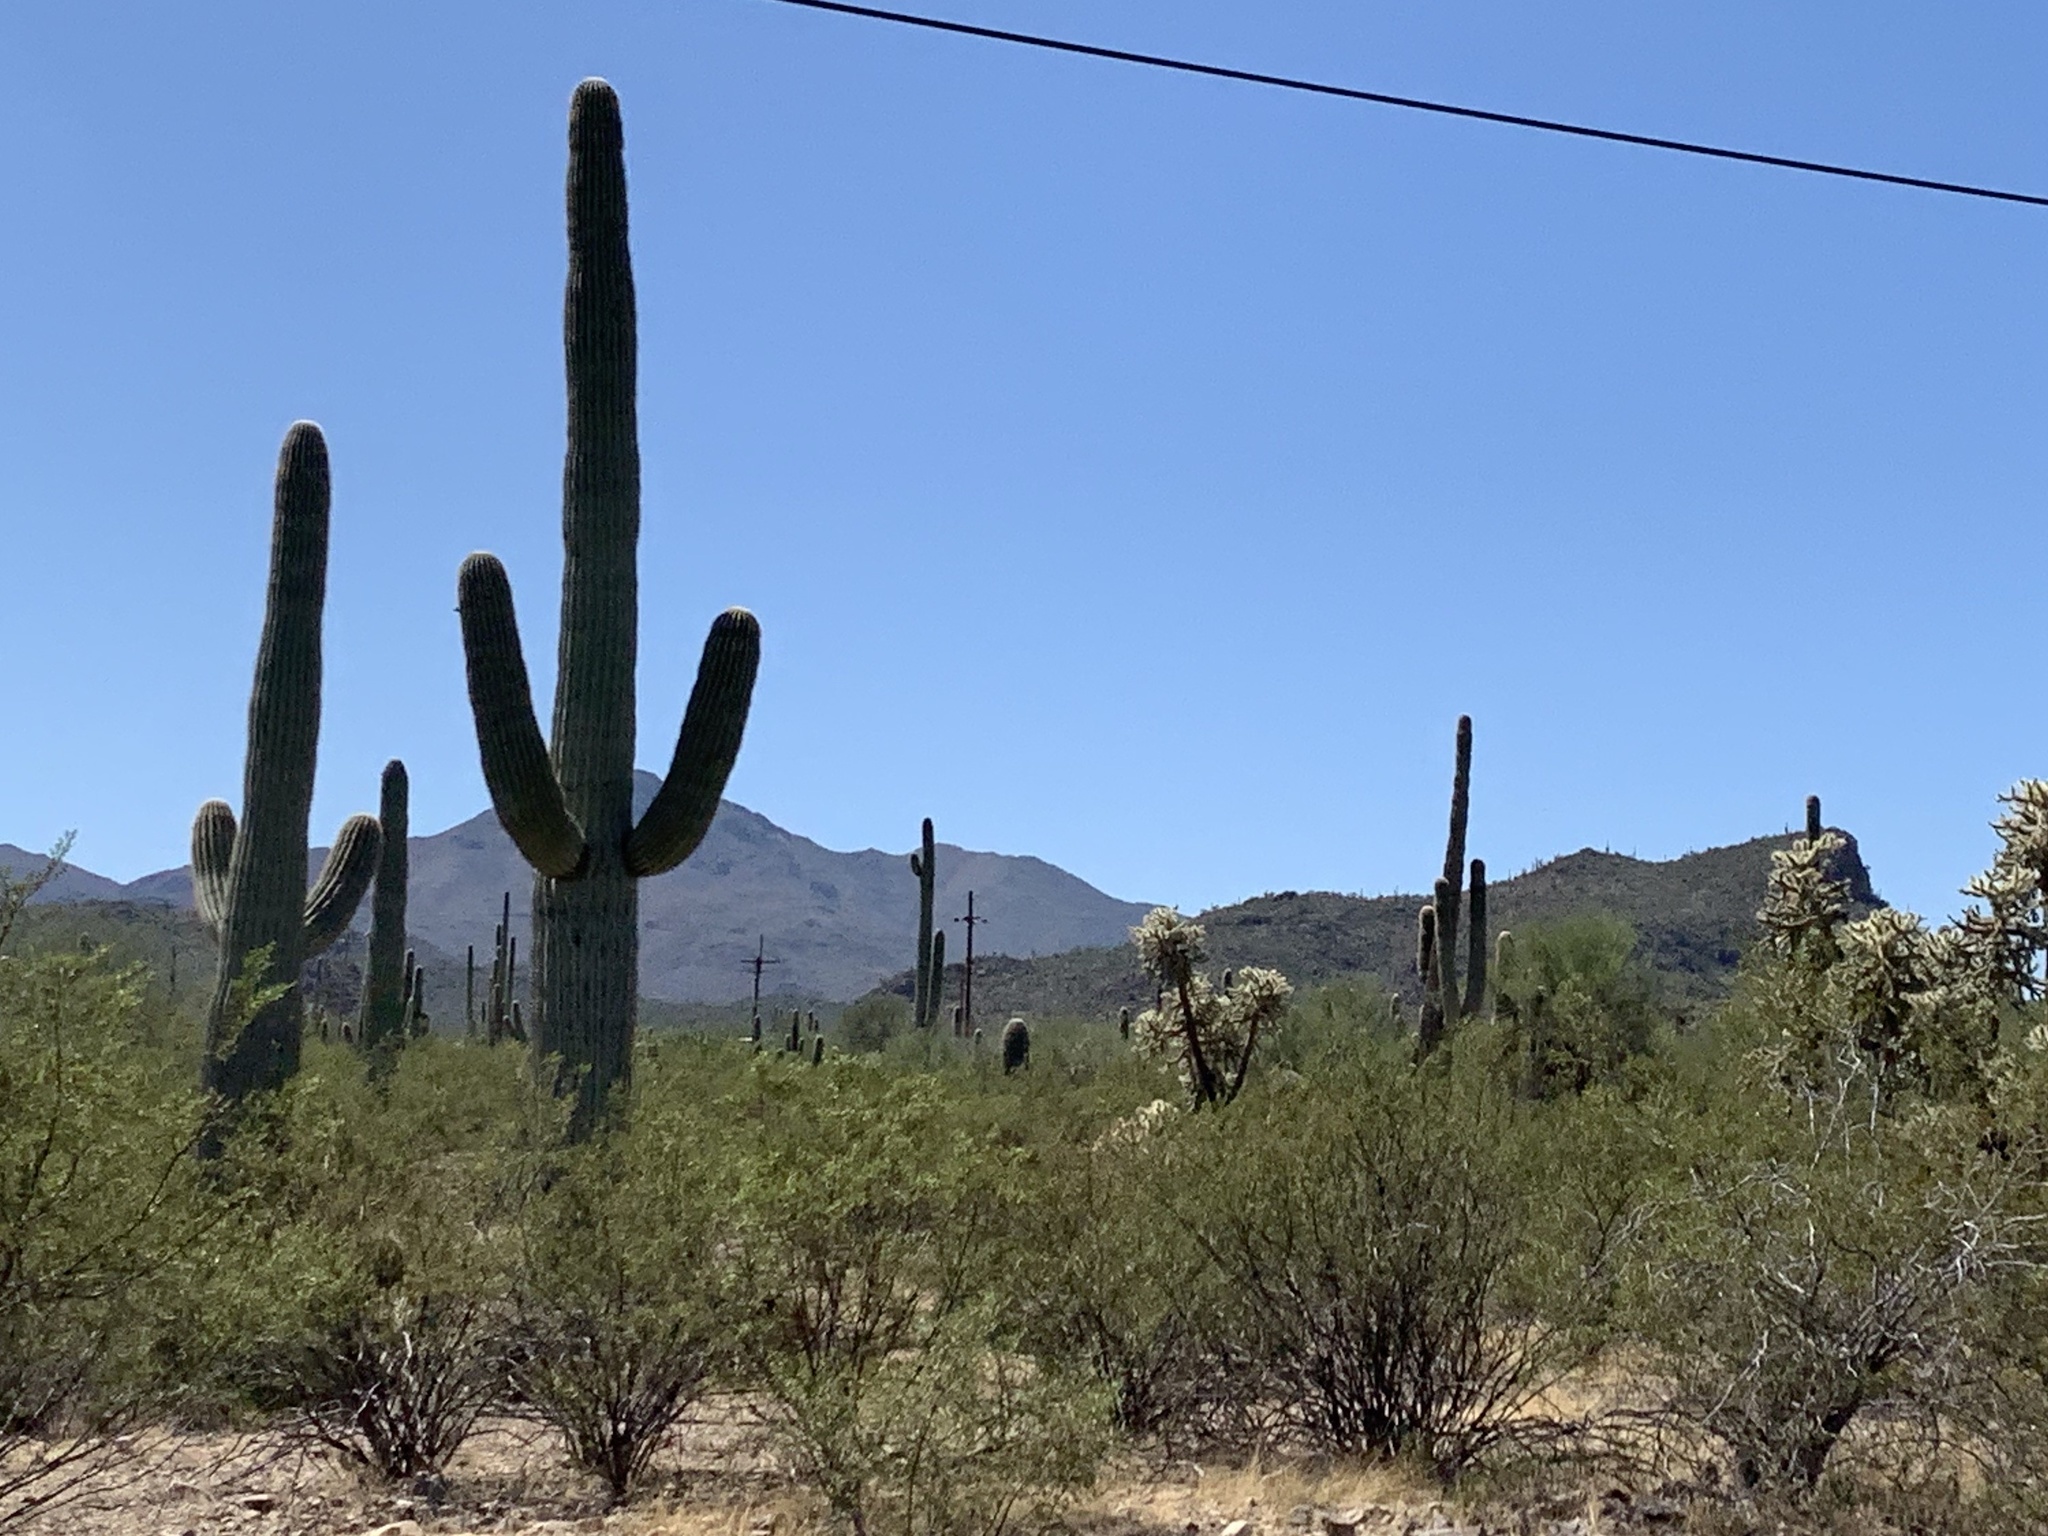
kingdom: Plantae
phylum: Tracheophyta
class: Magnoliopsida
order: Caryophyllales
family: Cactaceae
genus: Carnegiea
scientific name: Carnegiea gigantea
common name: Saguaro
